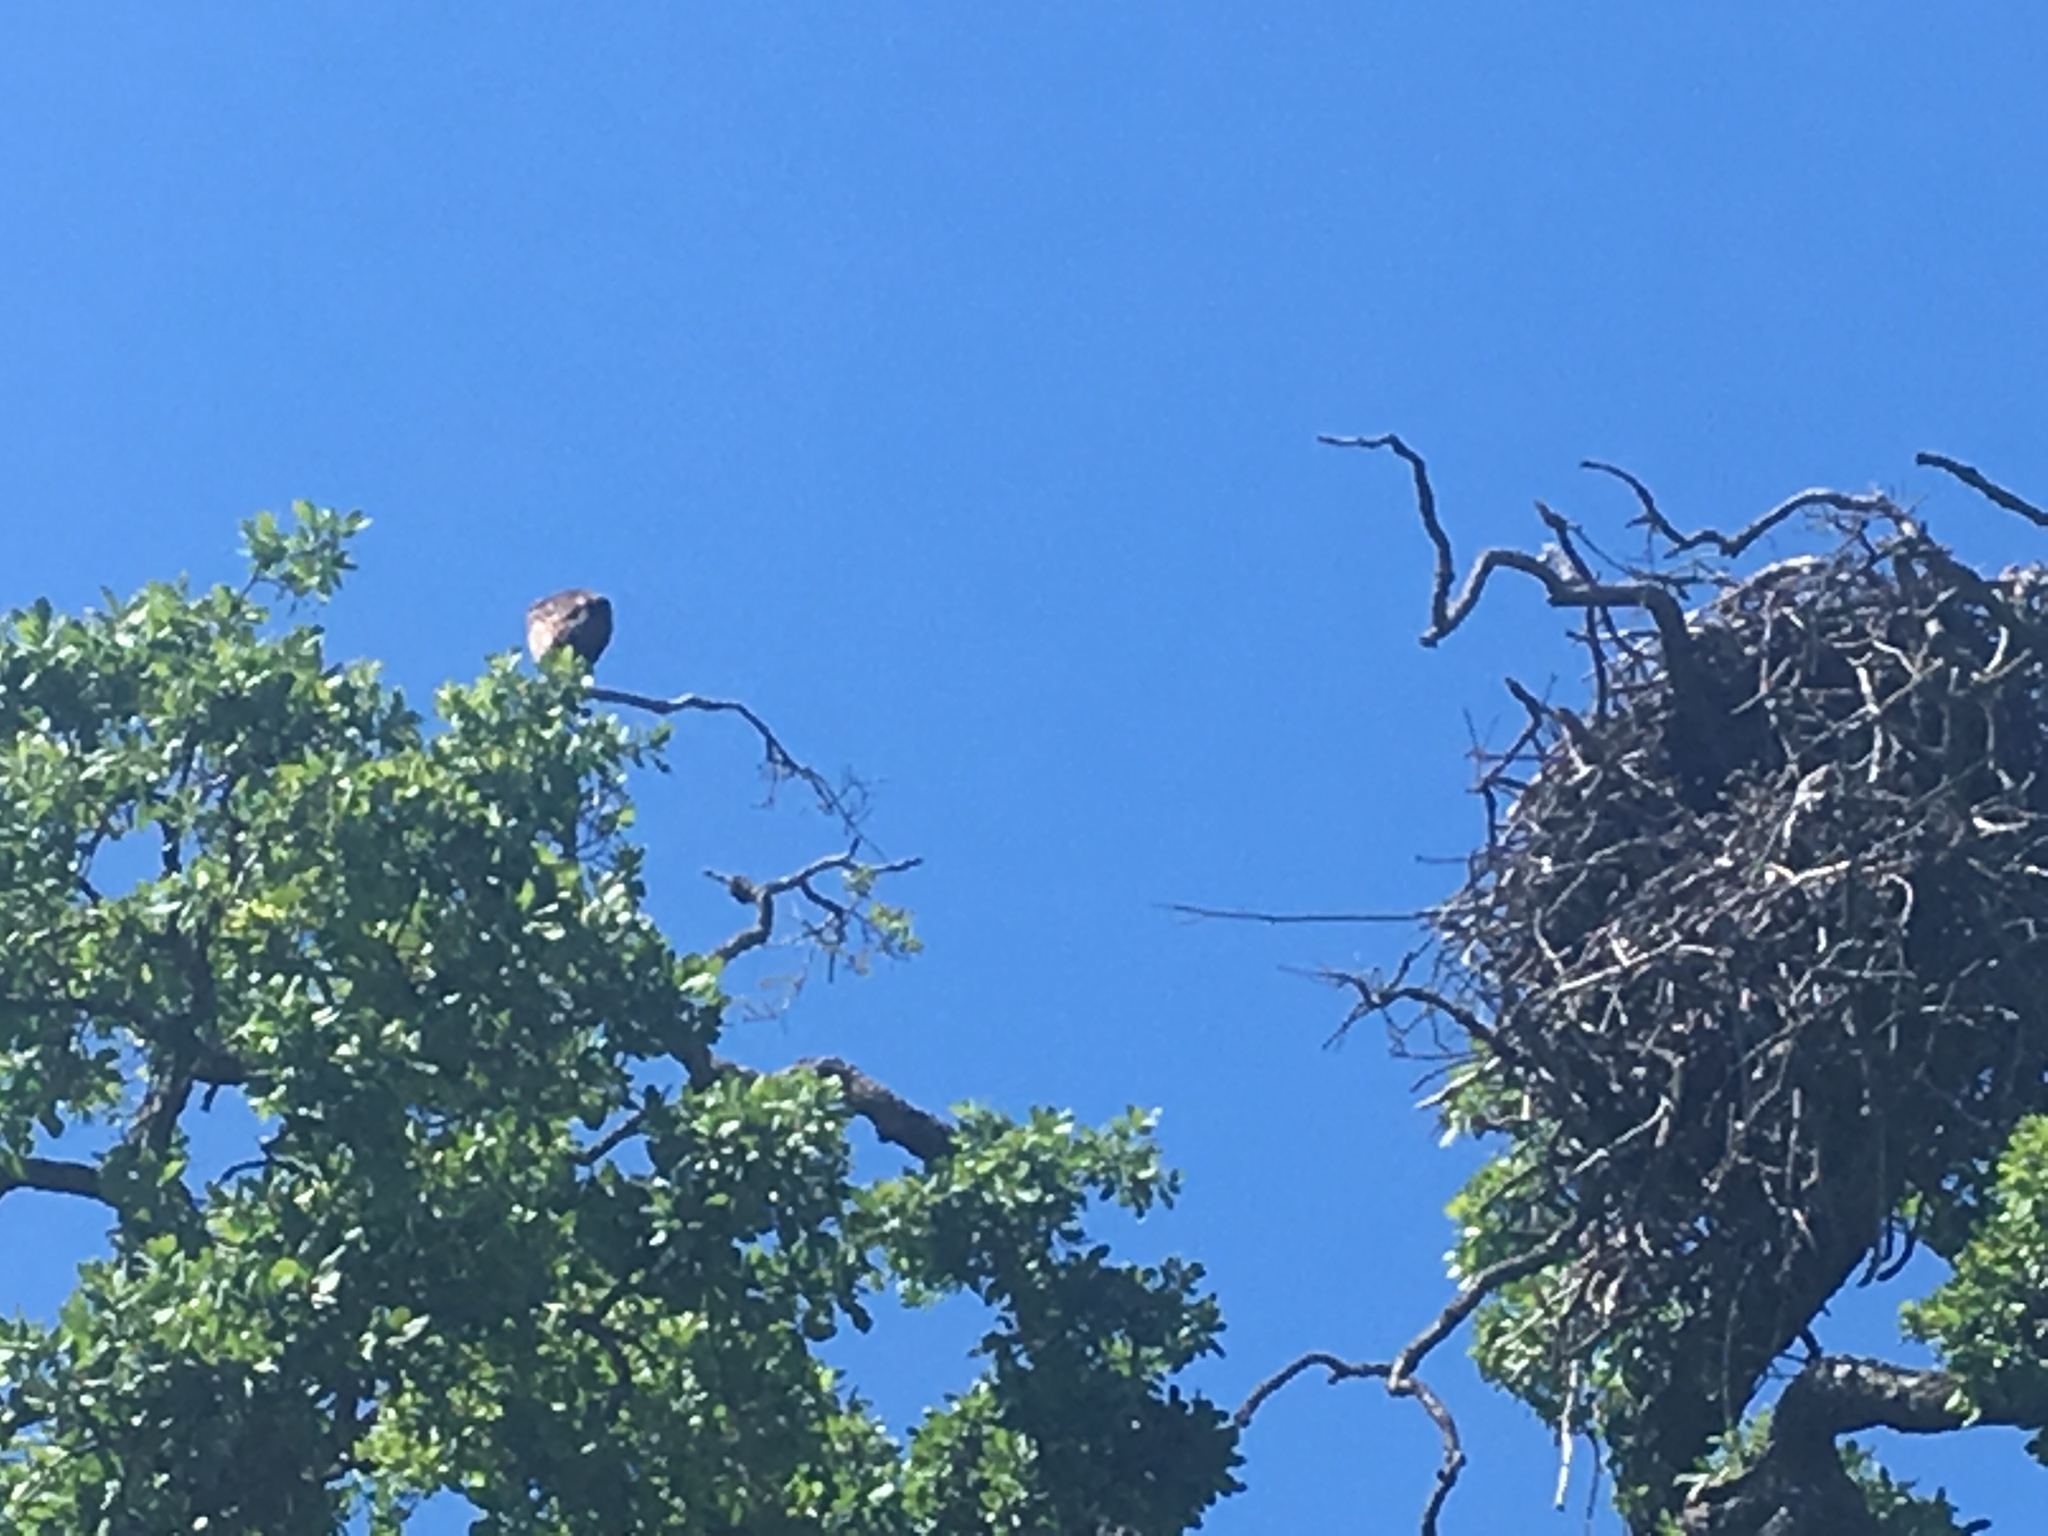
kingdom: Animalia
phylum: Chordata
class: Aves
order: Accipitriformes
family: Pandionidae
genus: Pandion
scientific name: Pandion haliaetus
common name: Osprey
